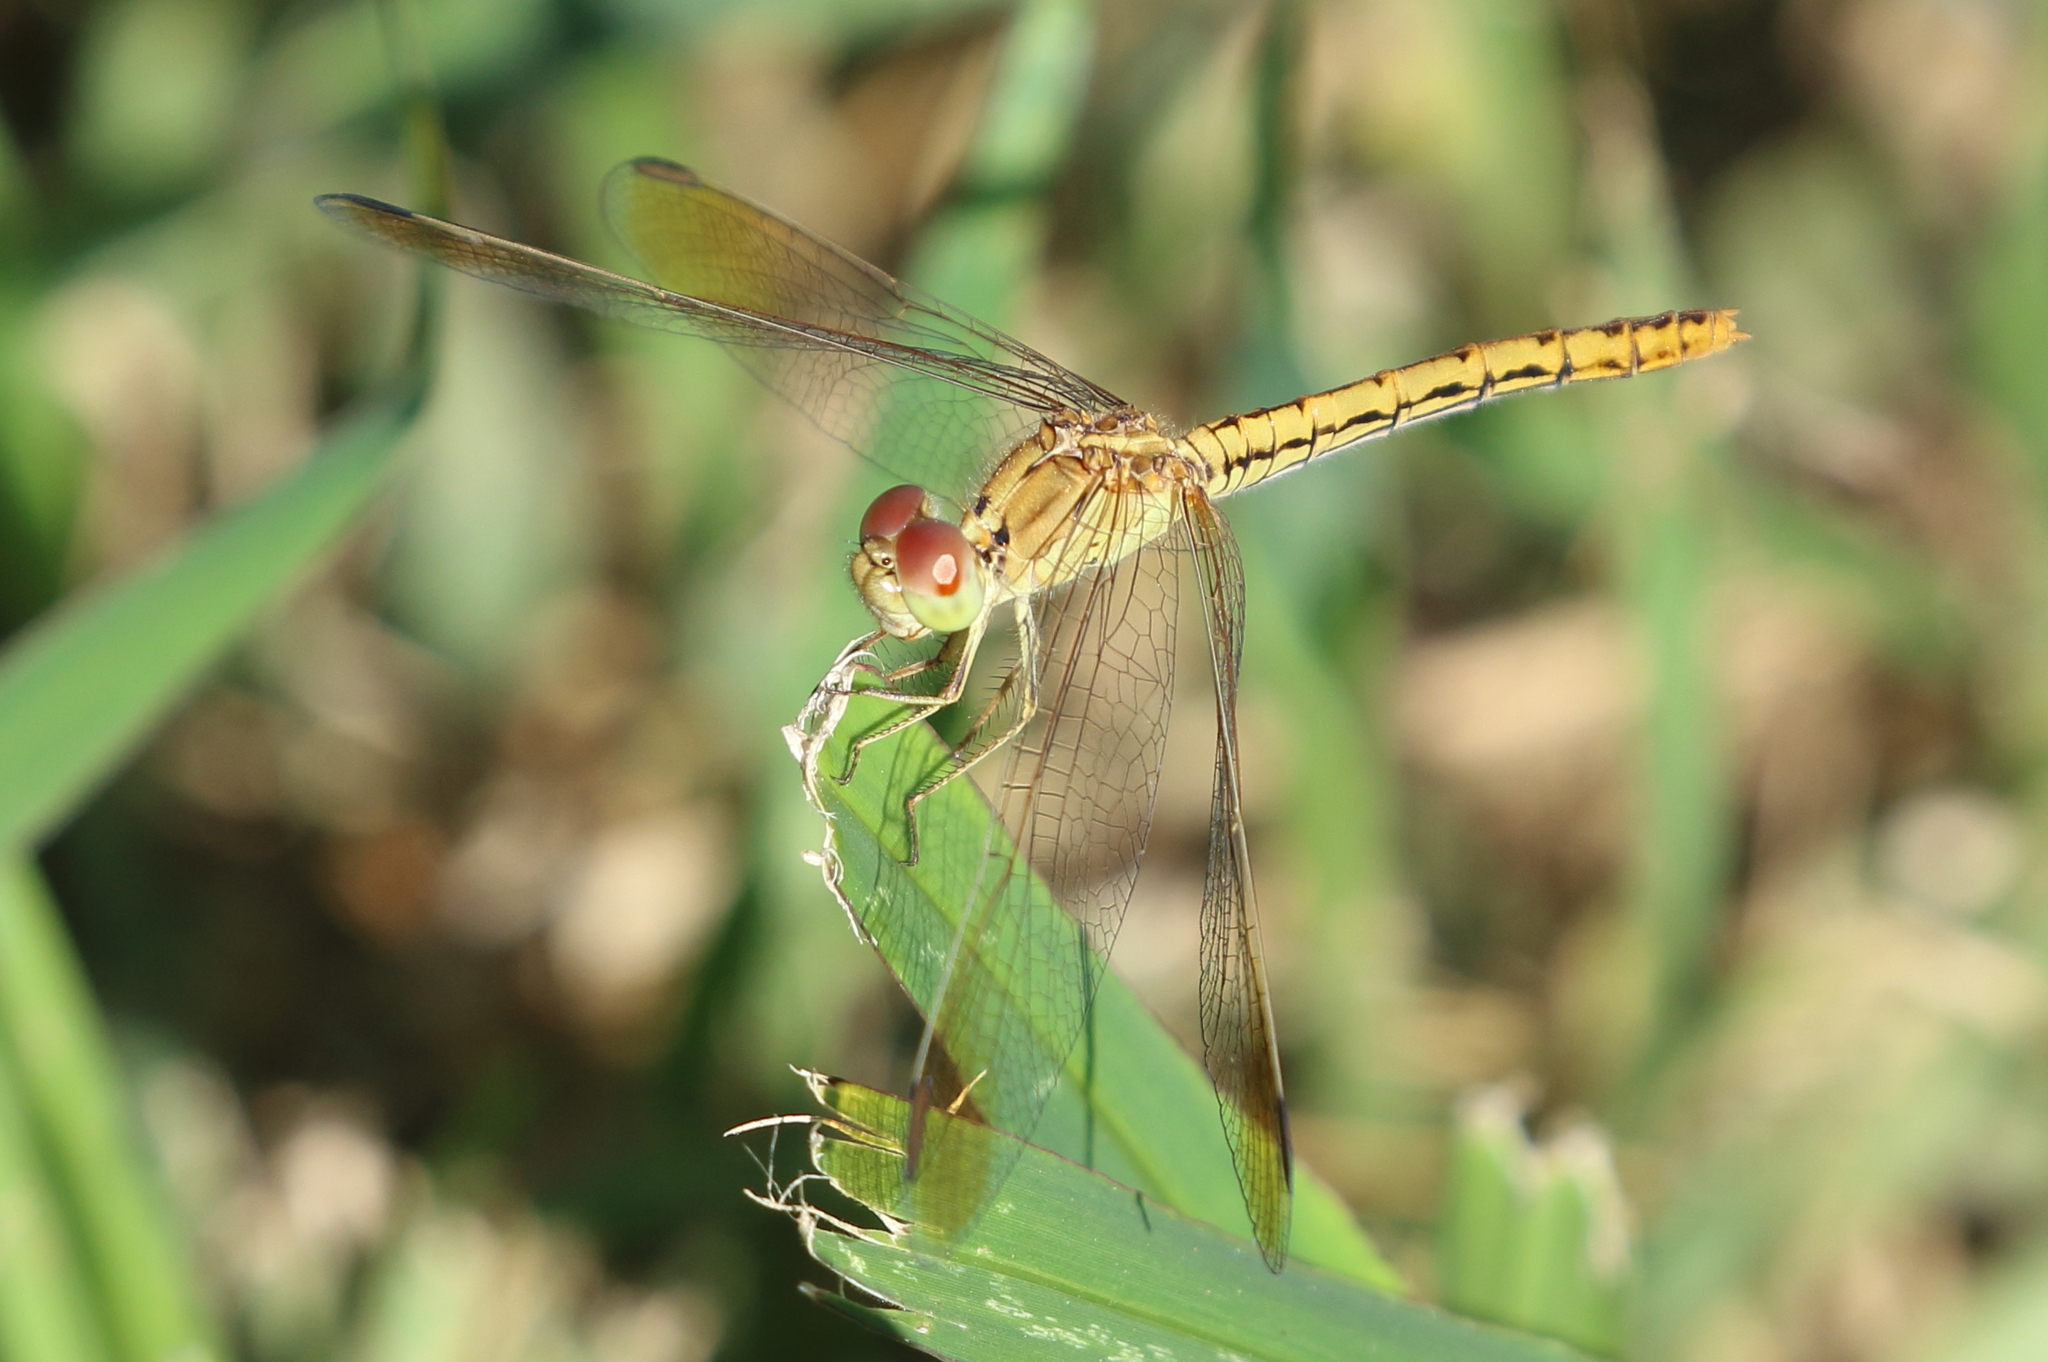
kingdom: Animalia
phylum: Arthropoda
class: Insecta
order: Odonata
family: Libellulidae
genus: Diplacodes
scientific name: Diplacodes haematodes
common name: Scarlet percher
